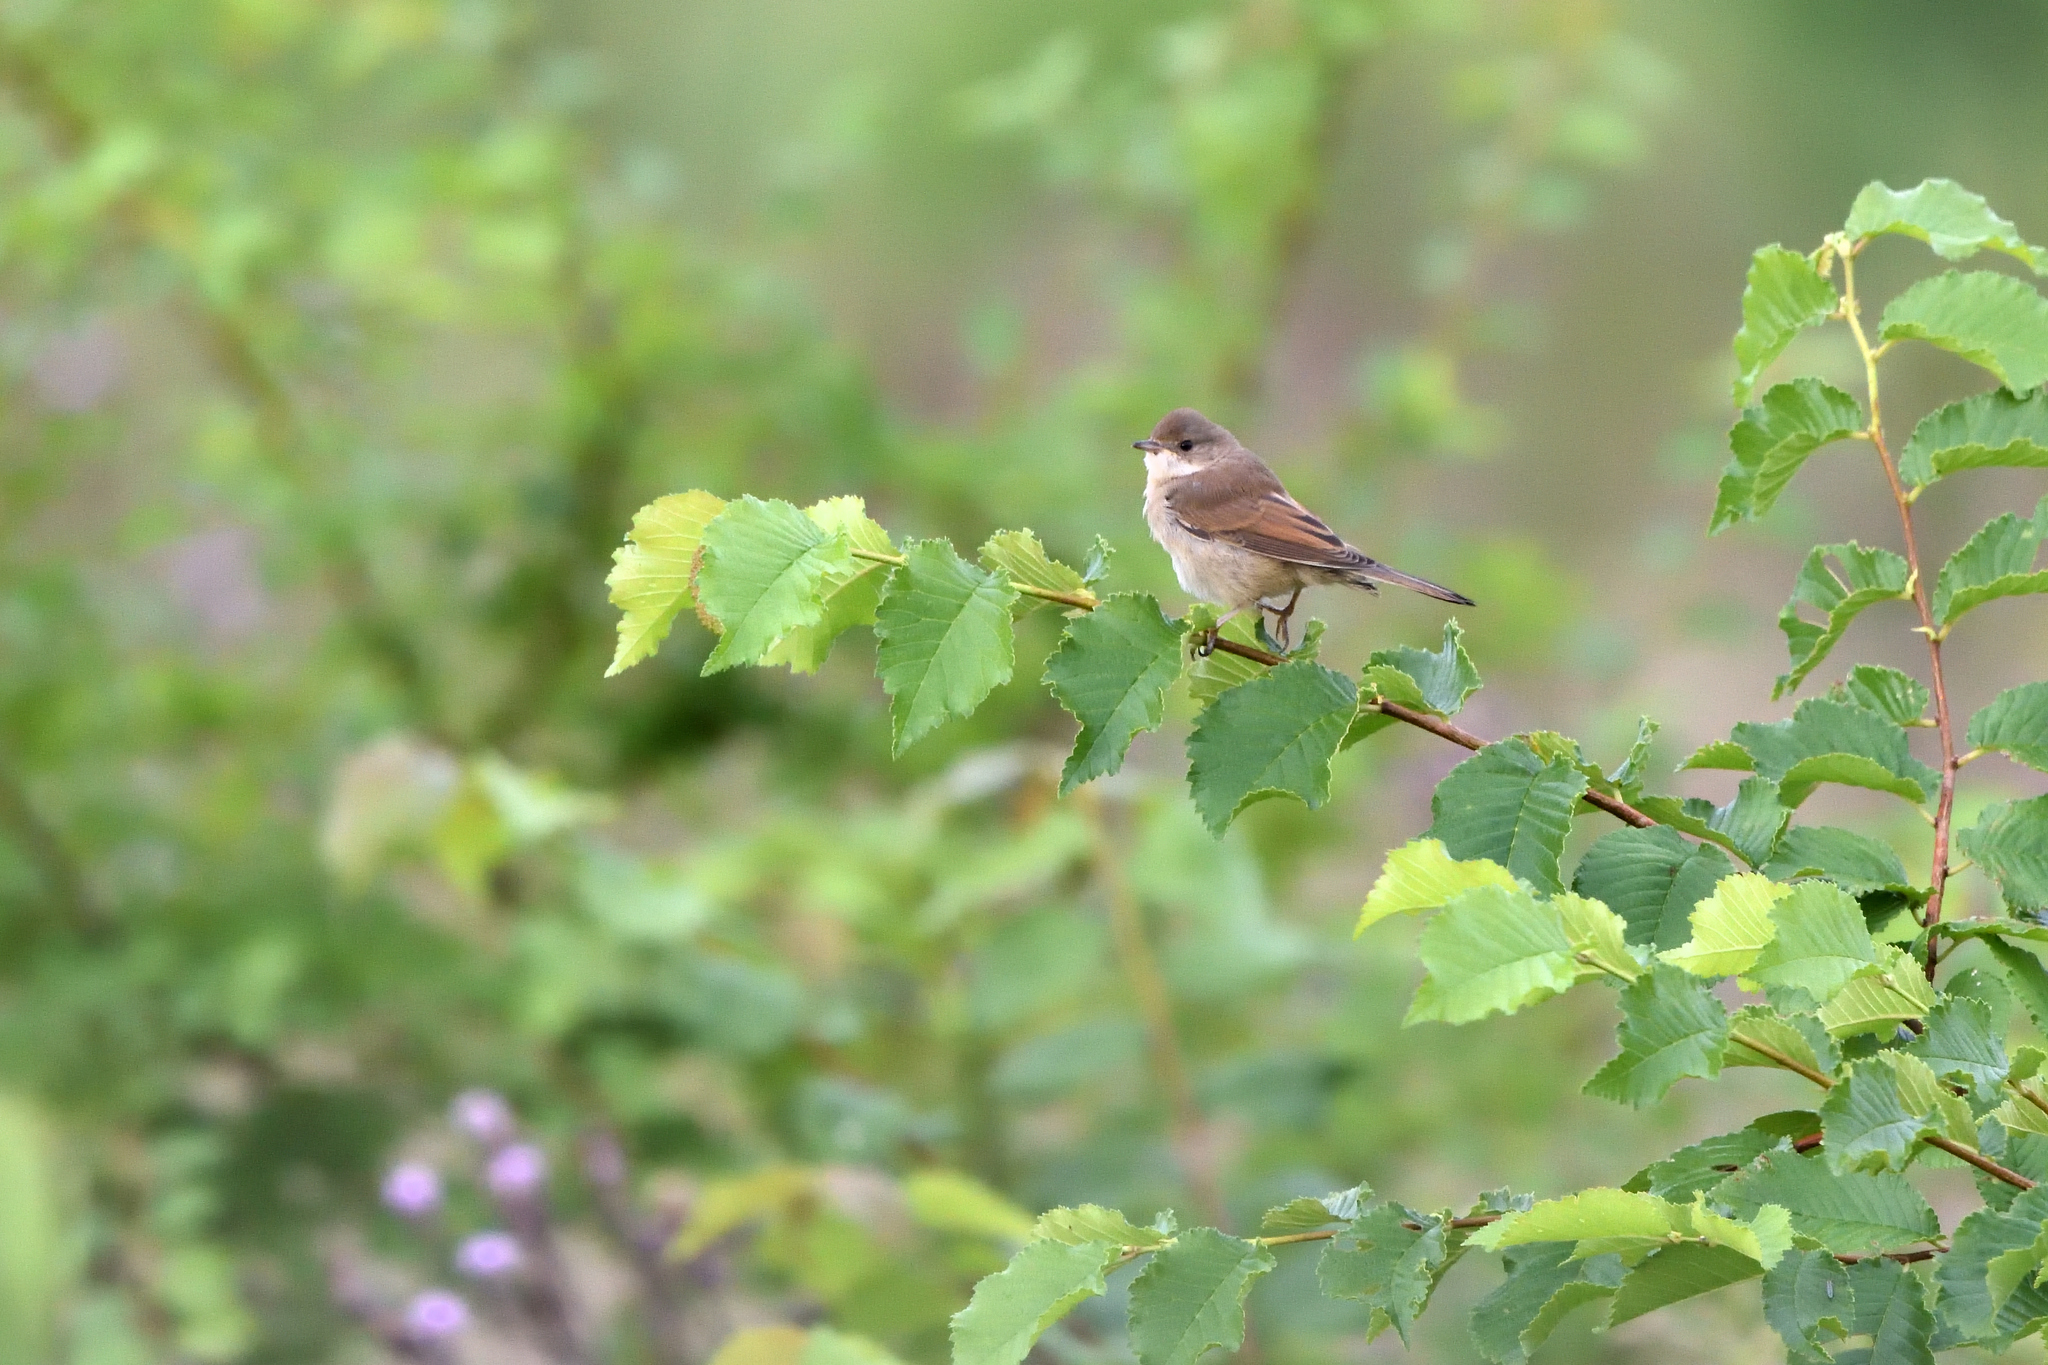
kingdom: Animalia
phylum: Chordata
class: Aves
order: Passeriformes
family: Sylviidae
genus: Sylvia
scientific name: Sylvia communis
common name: Common whitethroat
